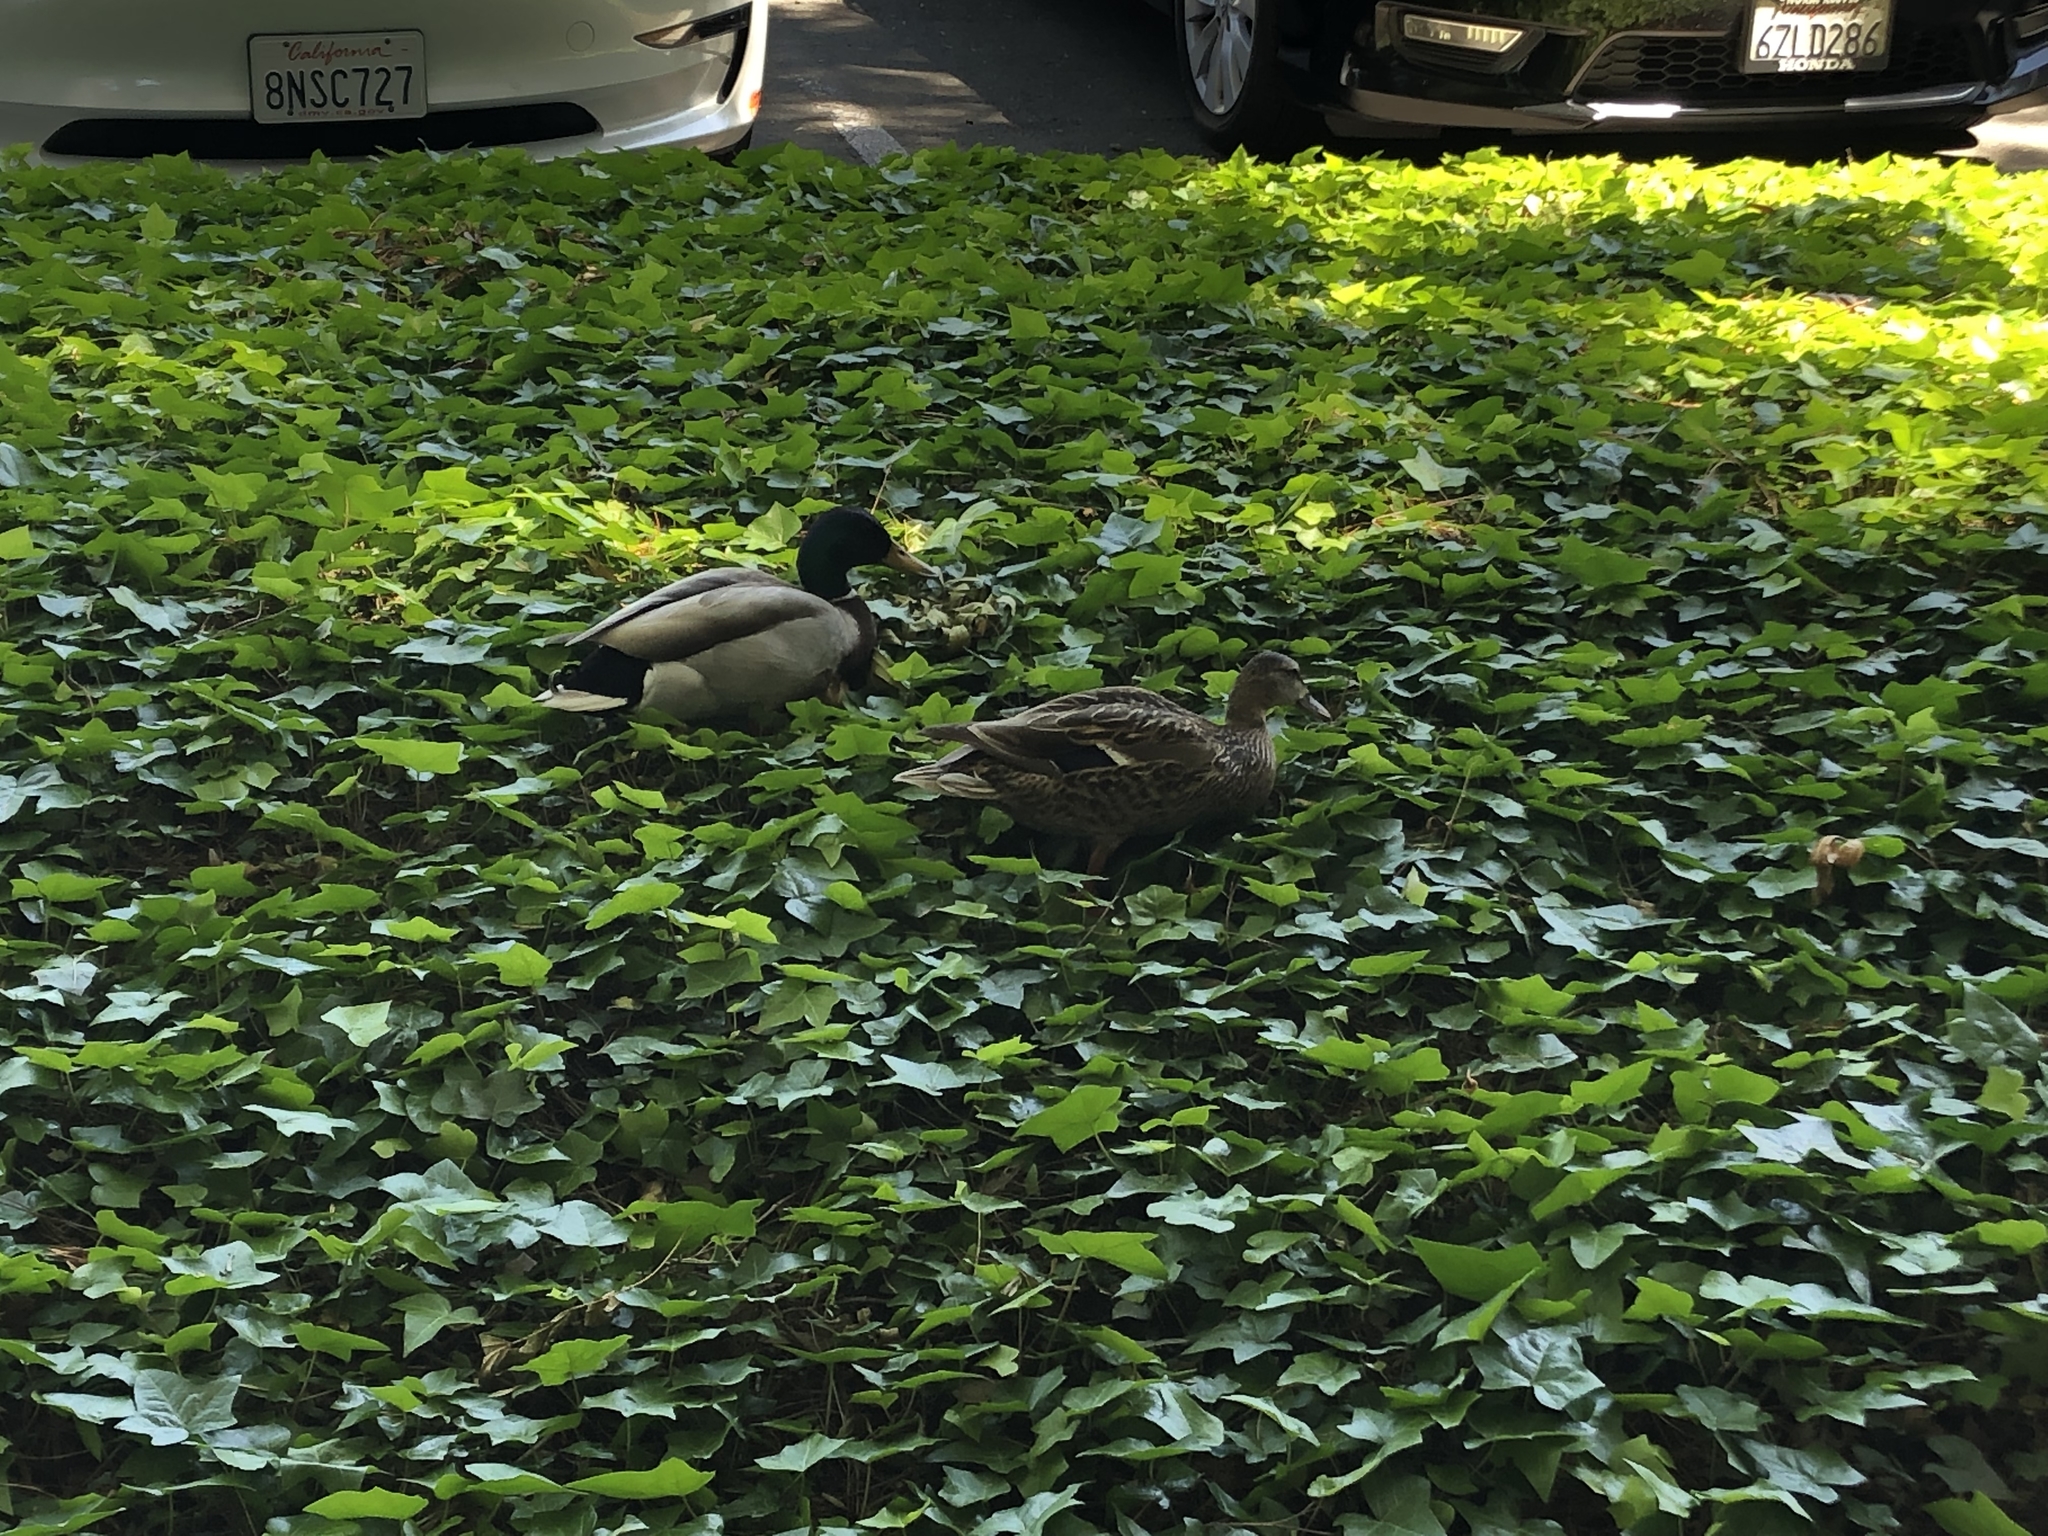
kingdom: Animalia
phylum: Chordata
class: Aves
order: Anseriformes
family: Anatidae
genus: Anas
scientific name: Anas platyrhynchos
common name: Mallard
